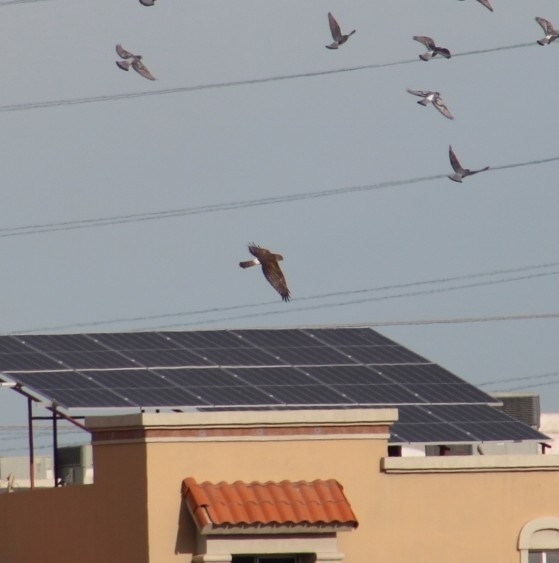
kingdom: Animalia
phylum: Chordata
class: Aves
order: Accipitriformes
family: Accipitridae
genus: Circus
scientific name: Circus cyaneus
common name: Hen harrier
